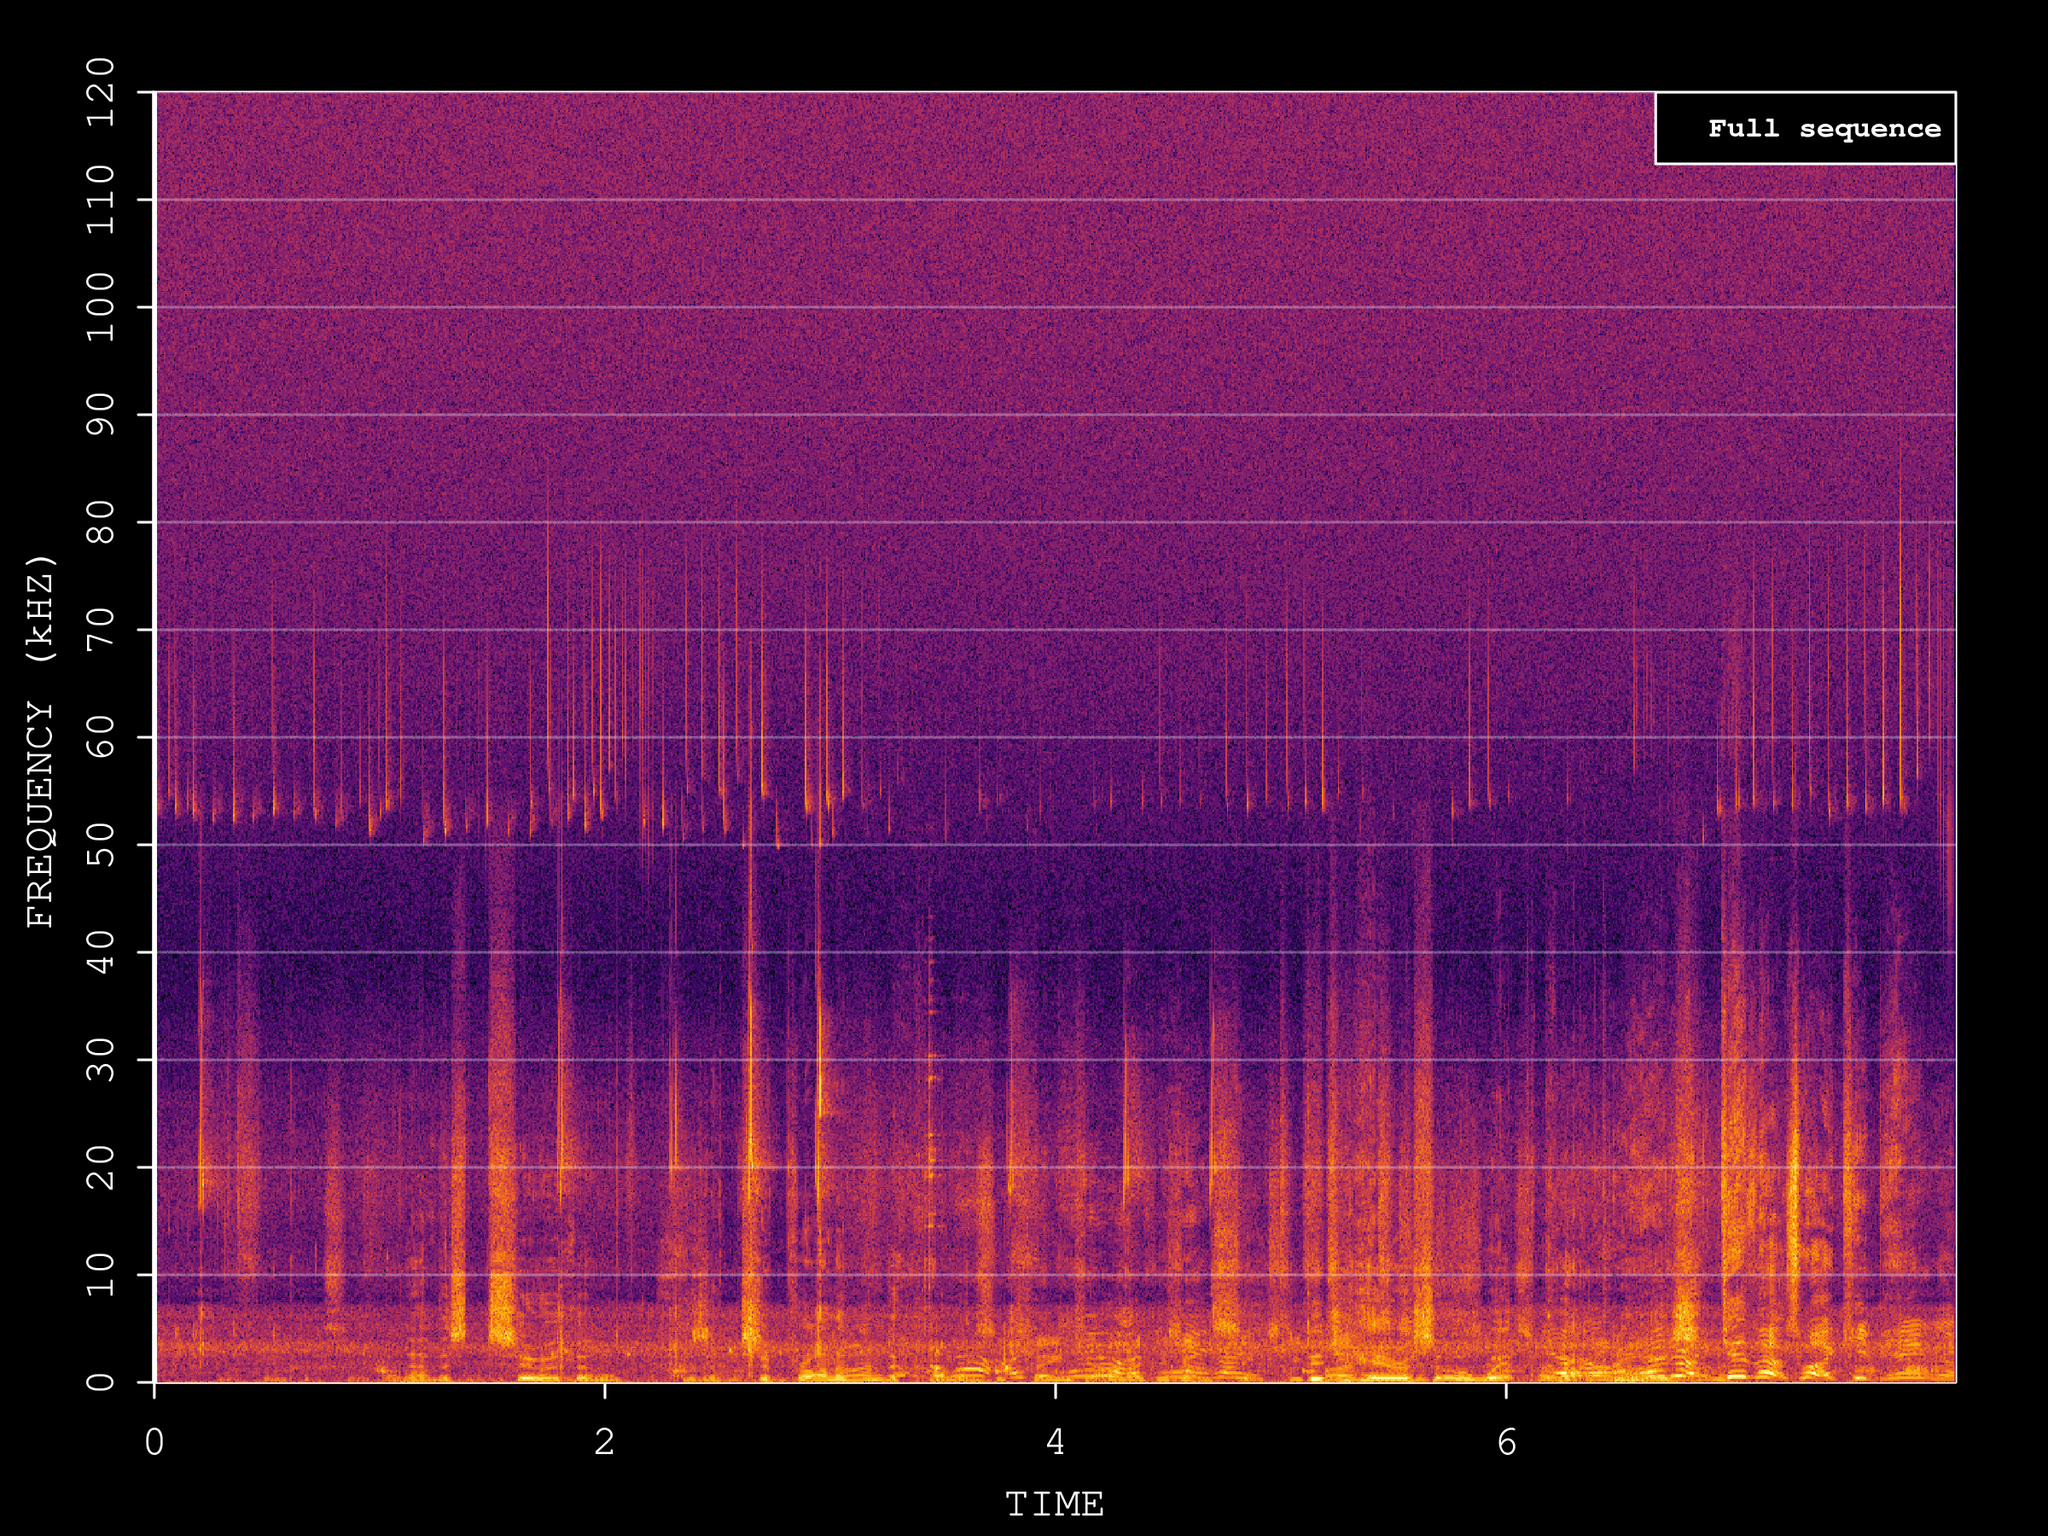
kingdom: Animalia
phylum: Chordata
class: Mammalia
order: Chiroptera
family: Vespertilionidae
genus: Pipistrellus
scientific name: Pipistrellus pygmaeus
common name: Soprano pipistrelle
